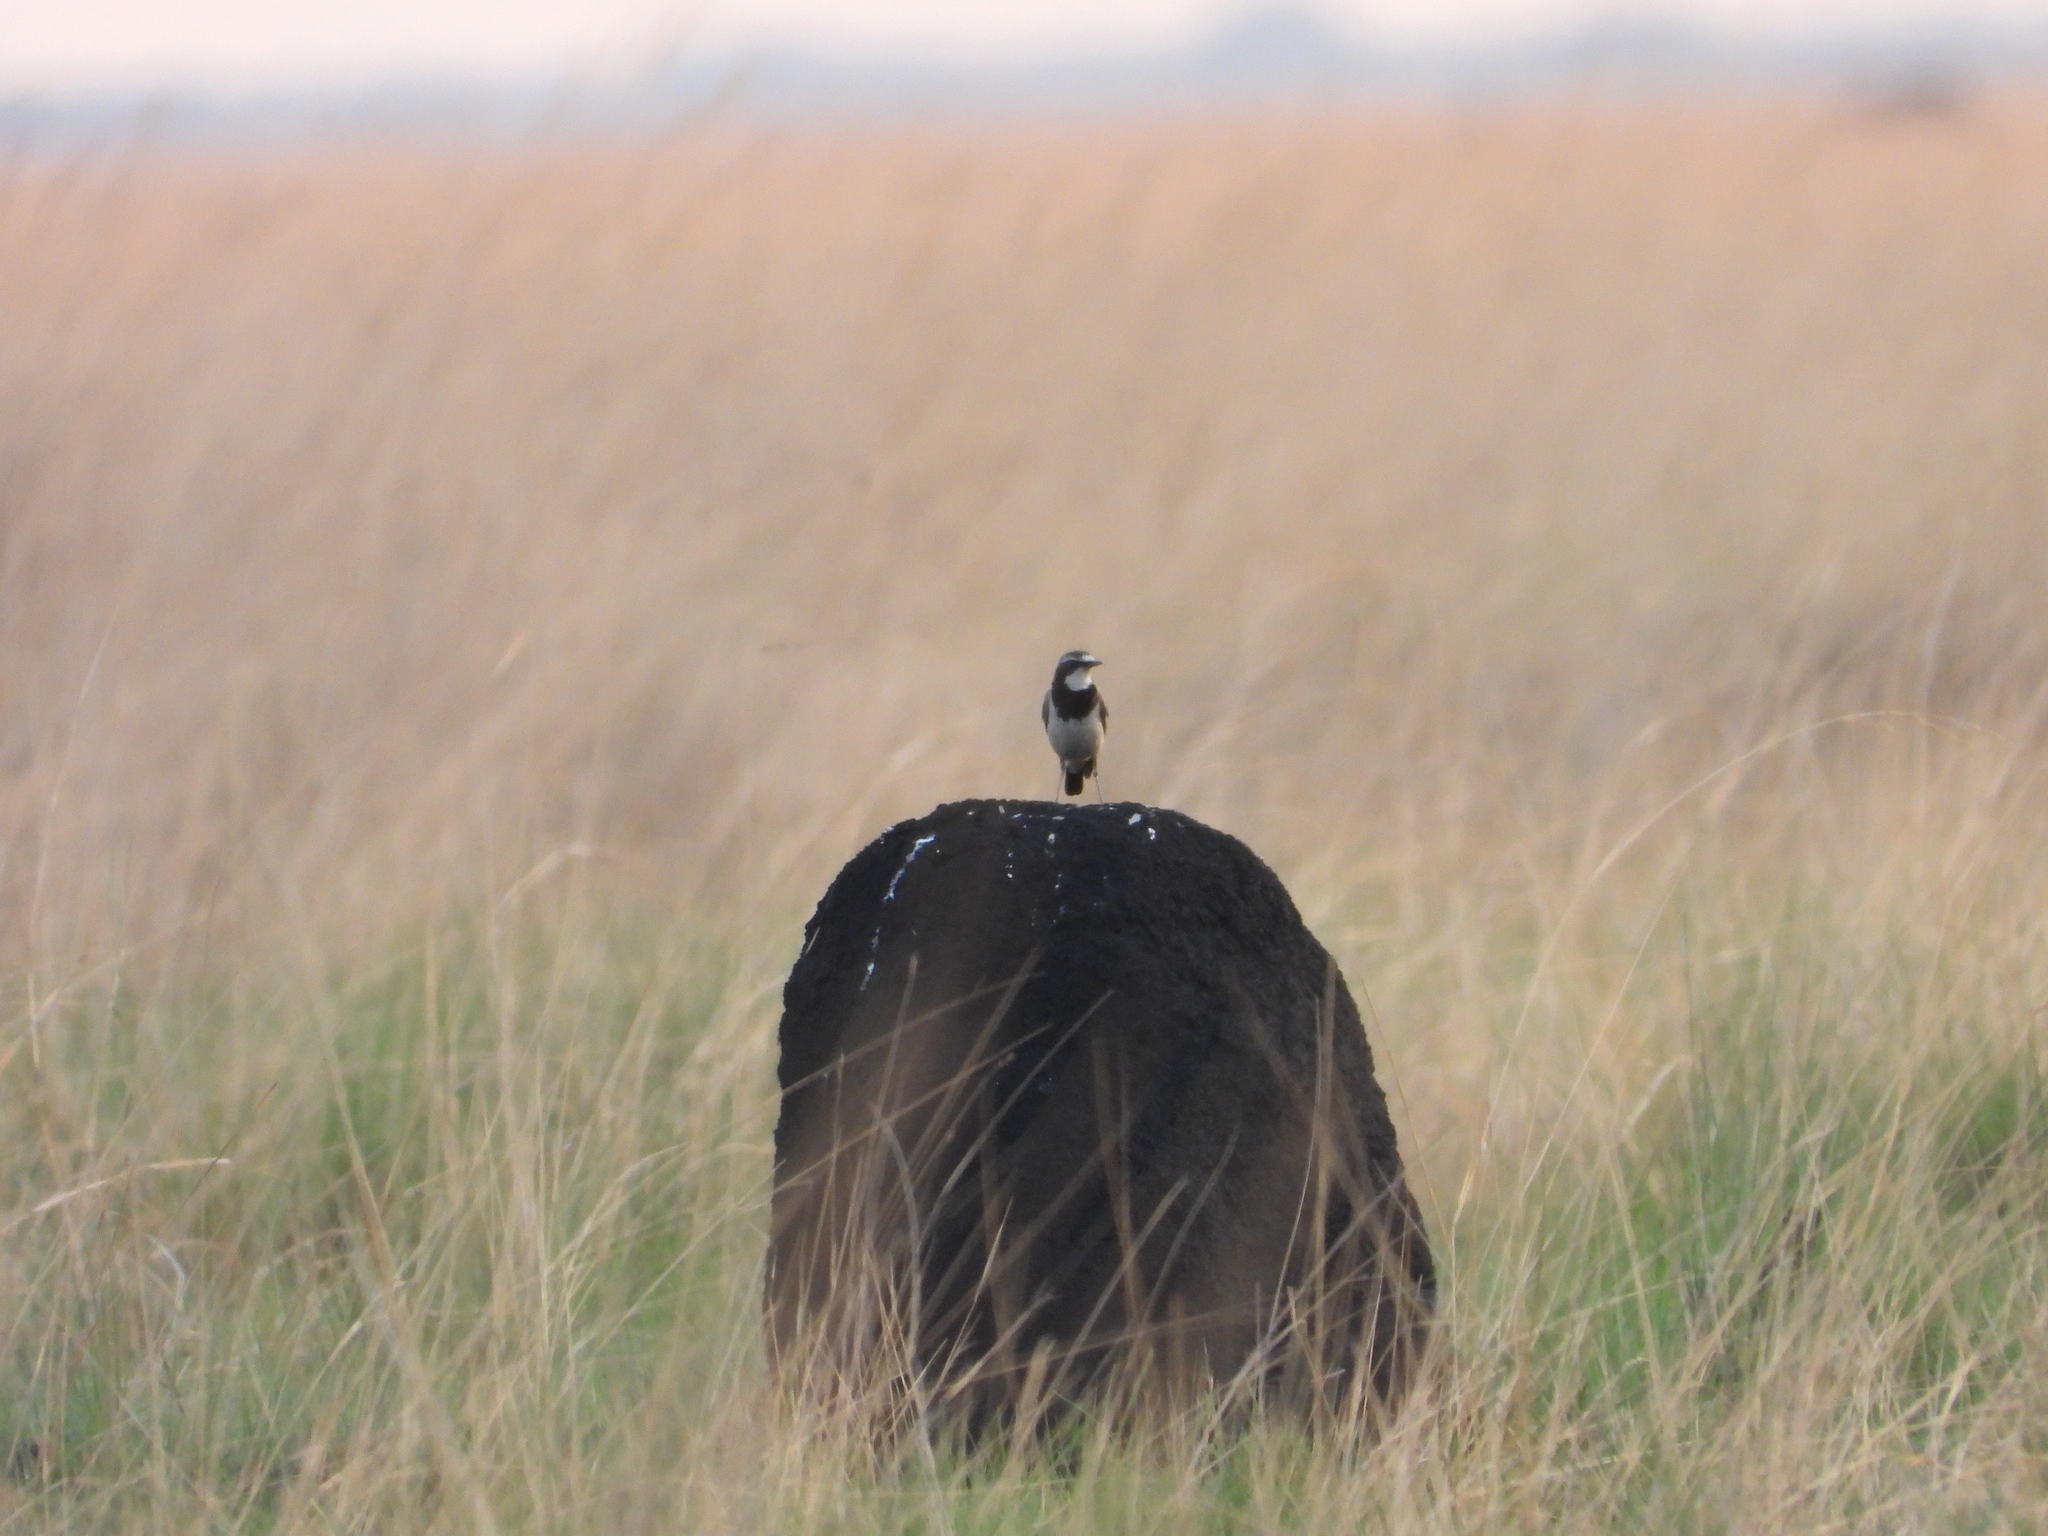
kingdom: Animalia
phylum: Chordata
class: Aves
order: Passeriformes
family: Muscicapidae
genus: Oenanthe
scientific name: Oenanthe pileata
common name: Capped wheatear
